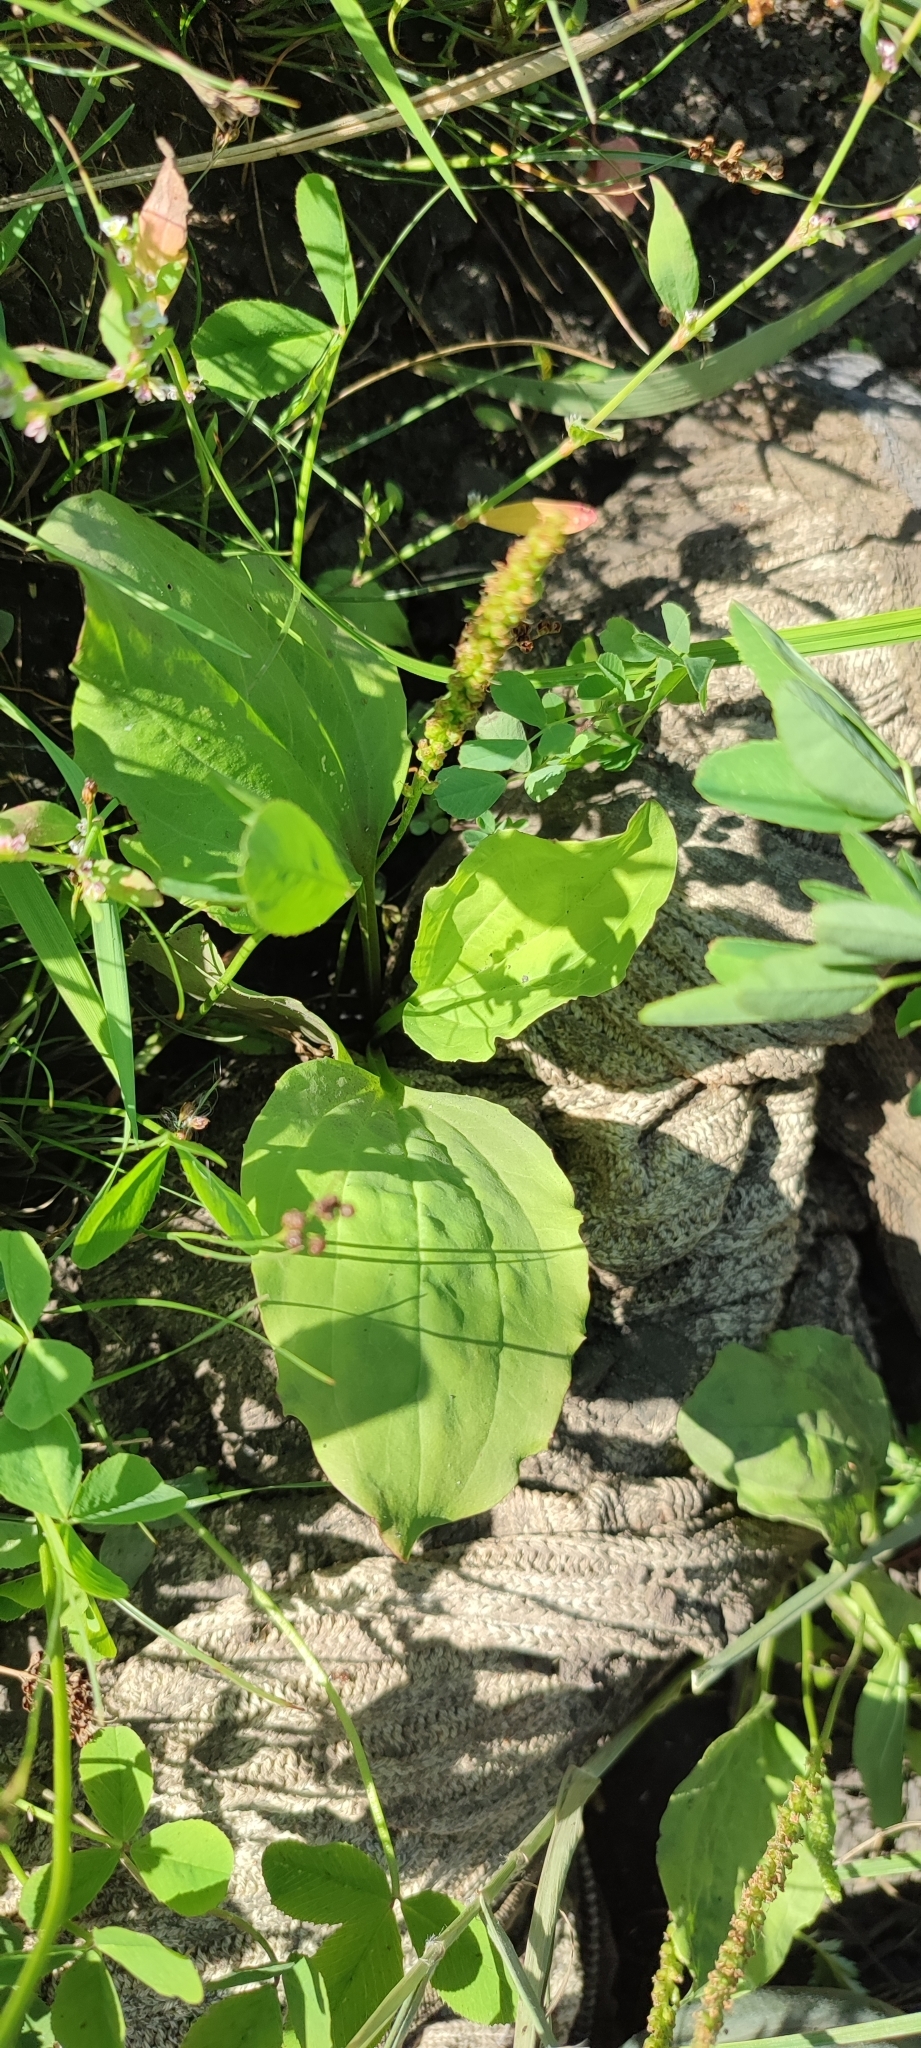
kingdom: Plantae
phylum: Tracheophyta
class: Magnoliopsida
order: Lamiales
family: Plantaginaceae
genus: Plantago
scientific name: Plantago major
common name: Common plantain
